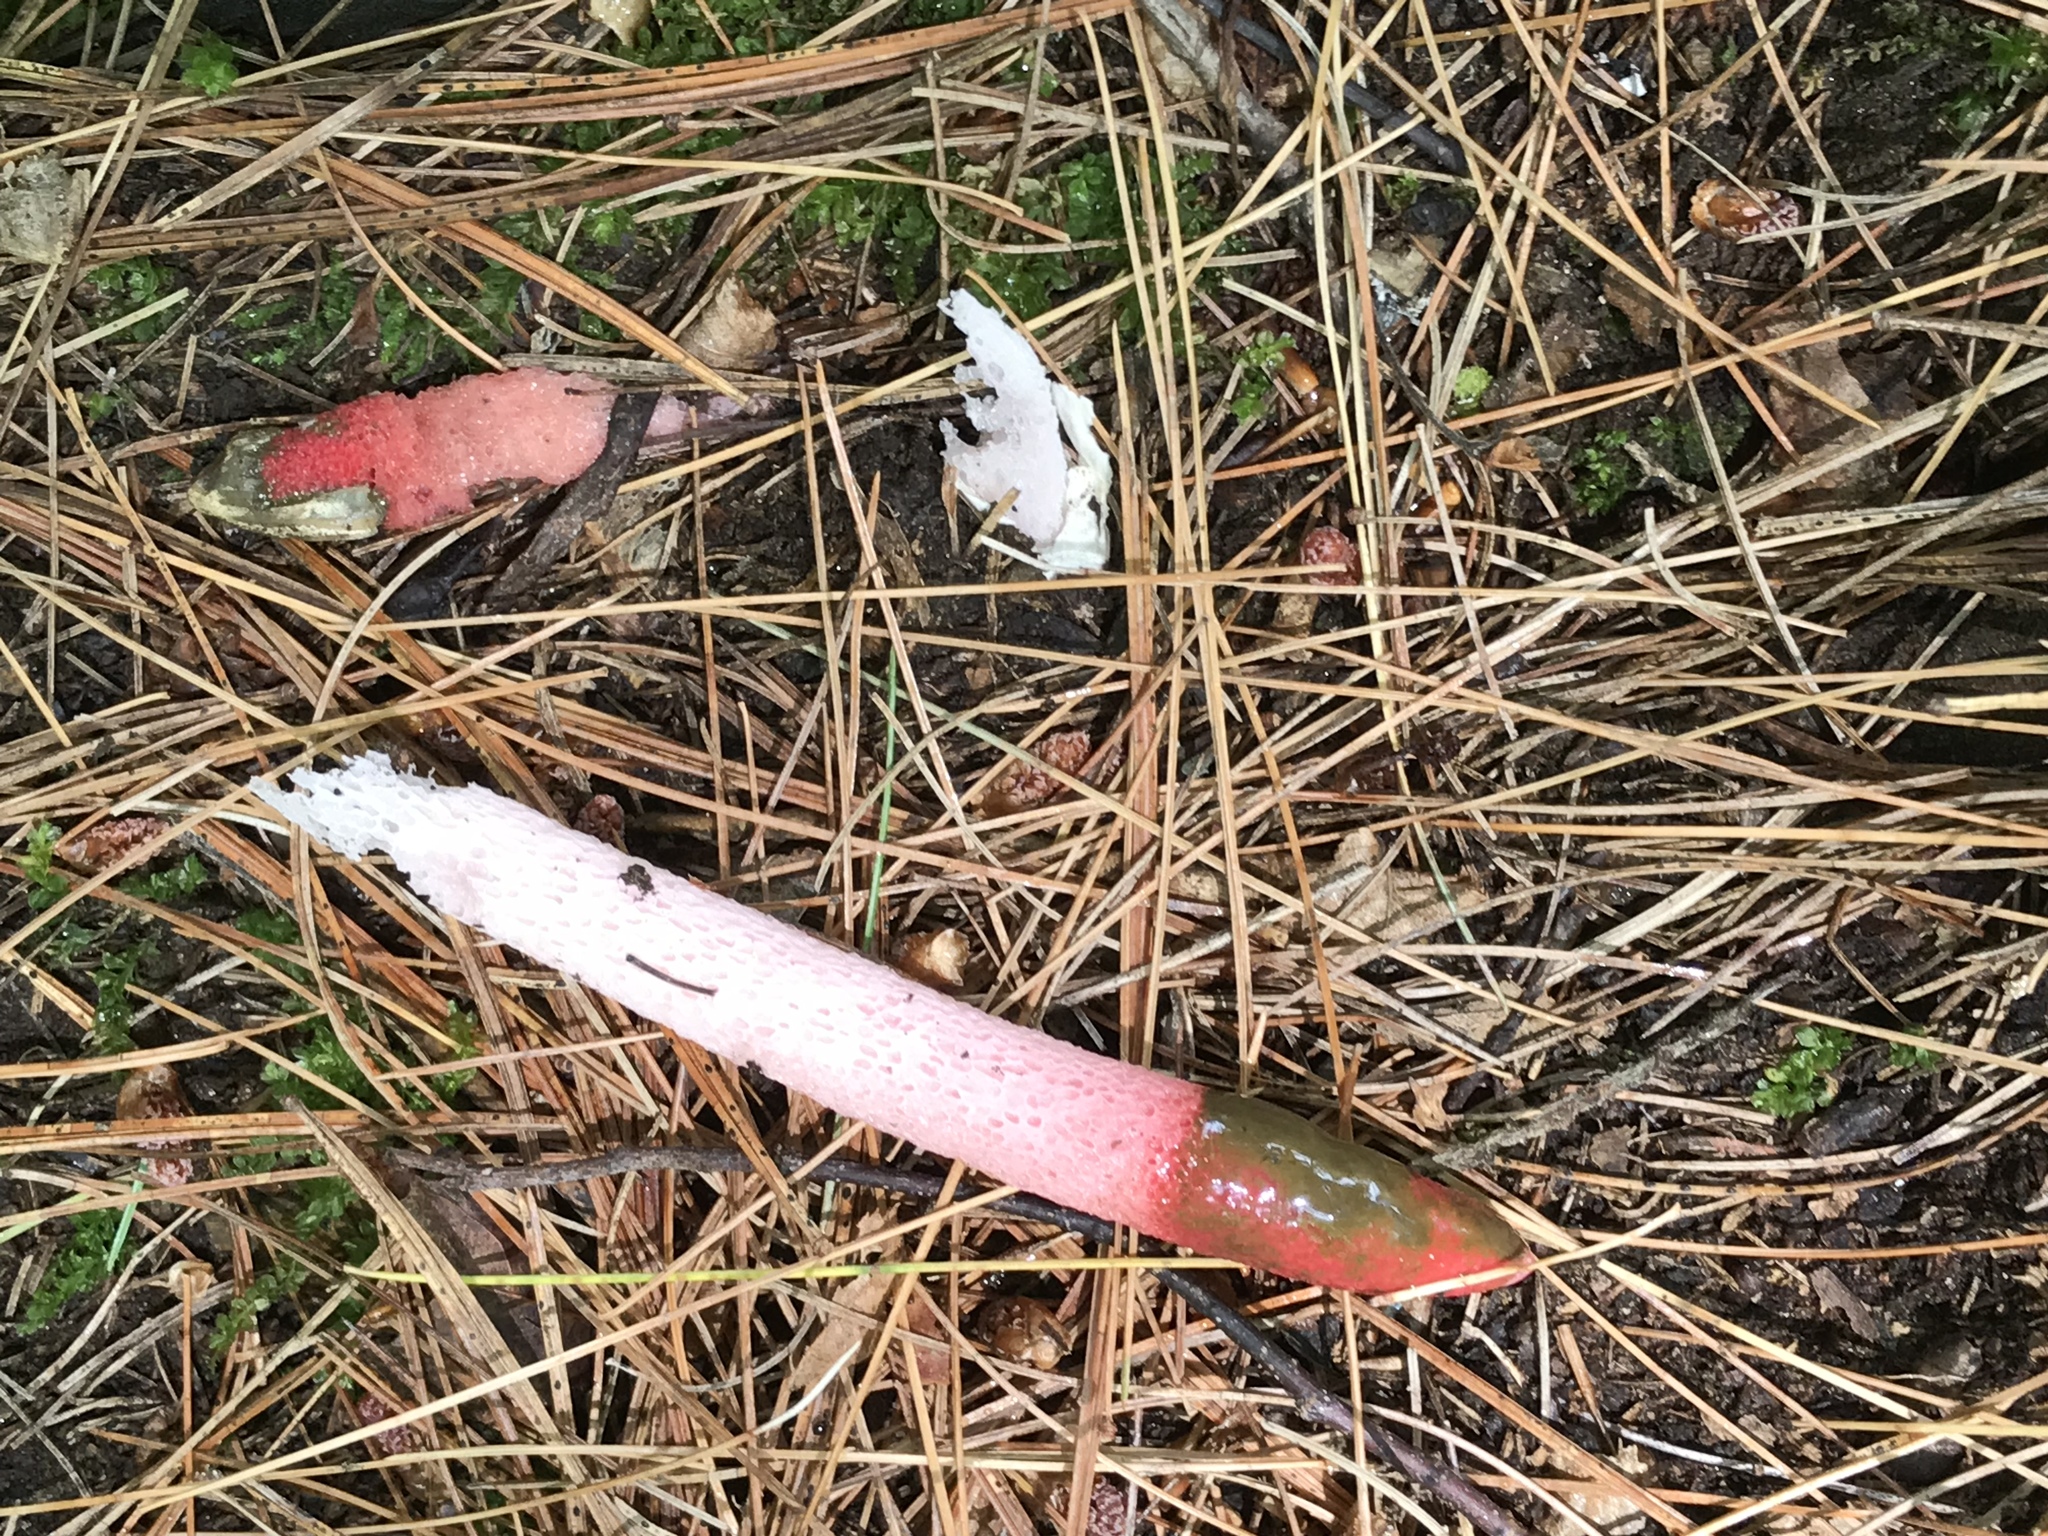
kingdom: Fungi
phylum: Basidiomycota
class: Agaricomycetes
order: Phallales
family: Phallaceae
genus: Mutinus
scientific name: Mutinus ravenelii
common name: Red stinkhorn
